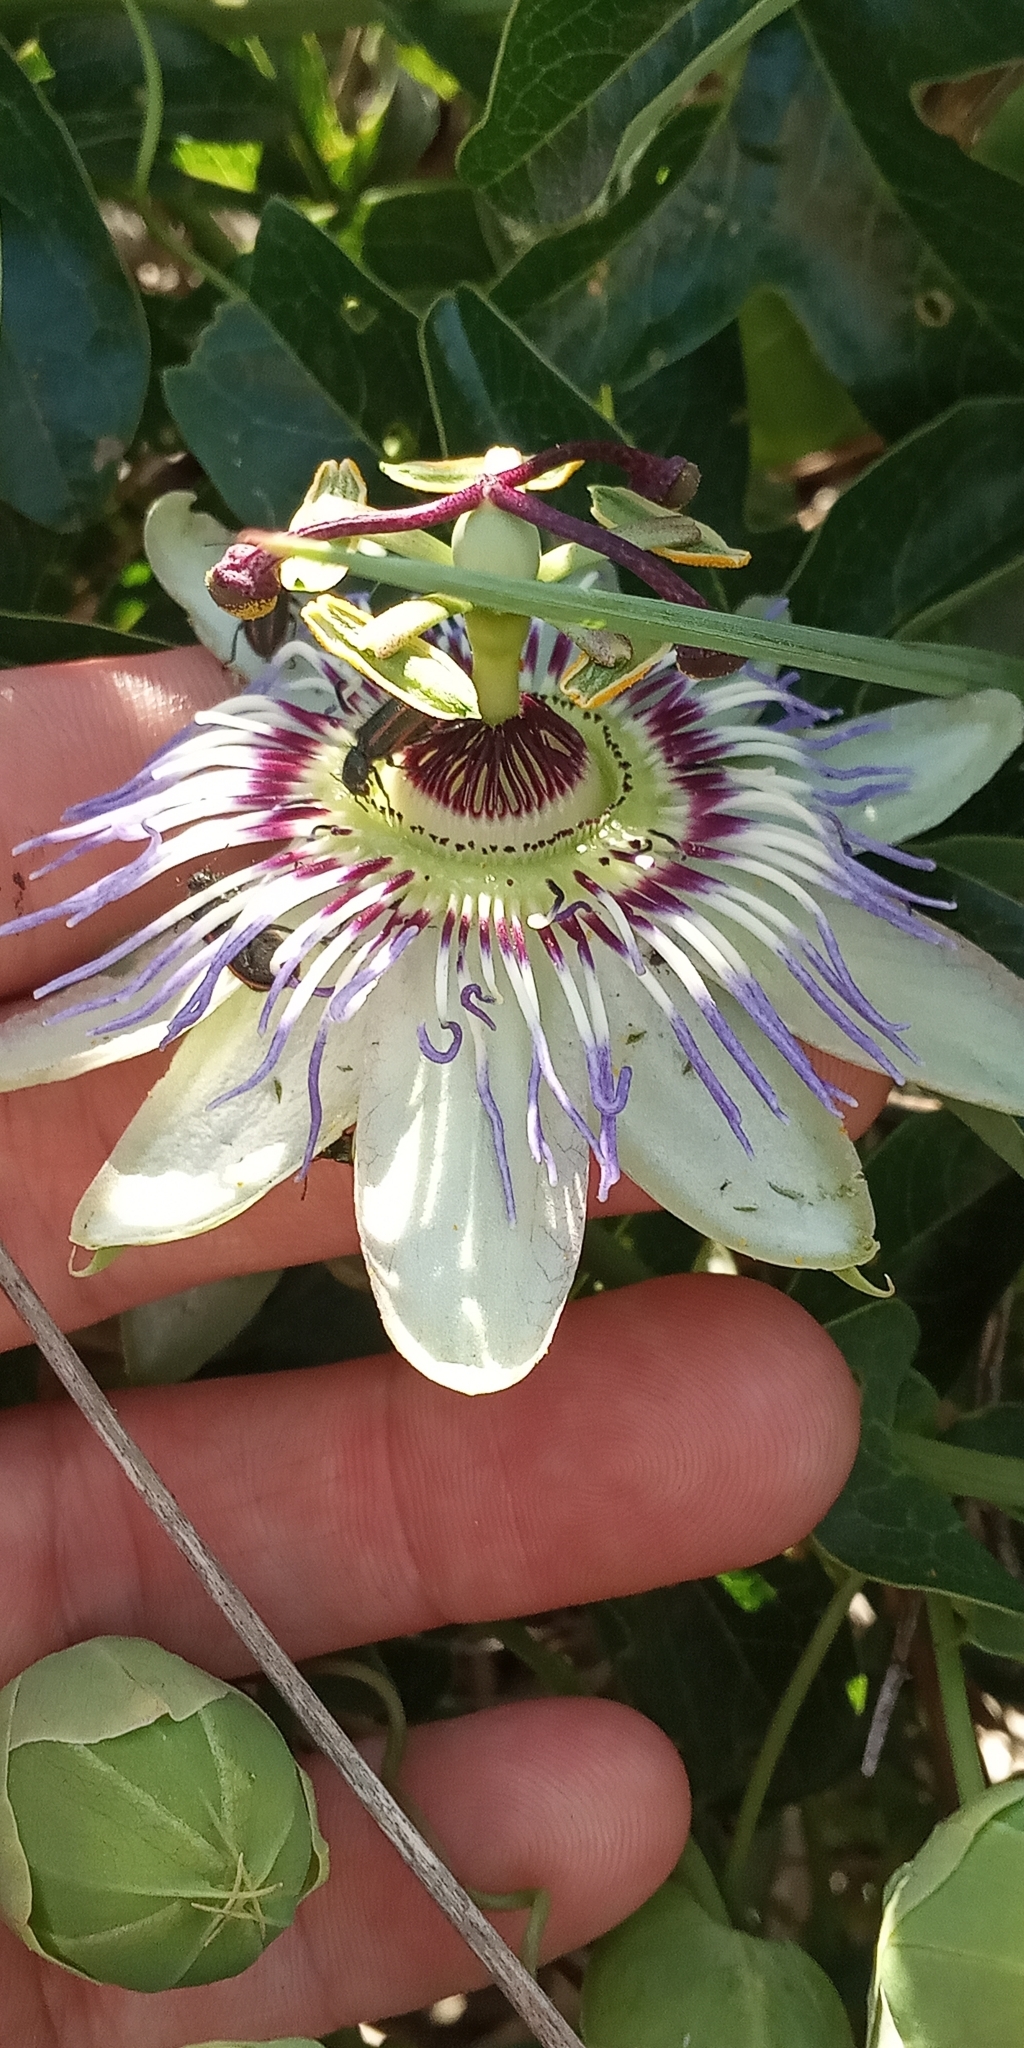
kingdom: Plantae
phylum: Tracheophyta
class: Magnoliopsida
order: Malpighiales
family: Passifloraceae
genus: Passiflora
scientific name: Passiflora caerulea
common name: Blue passionflower
